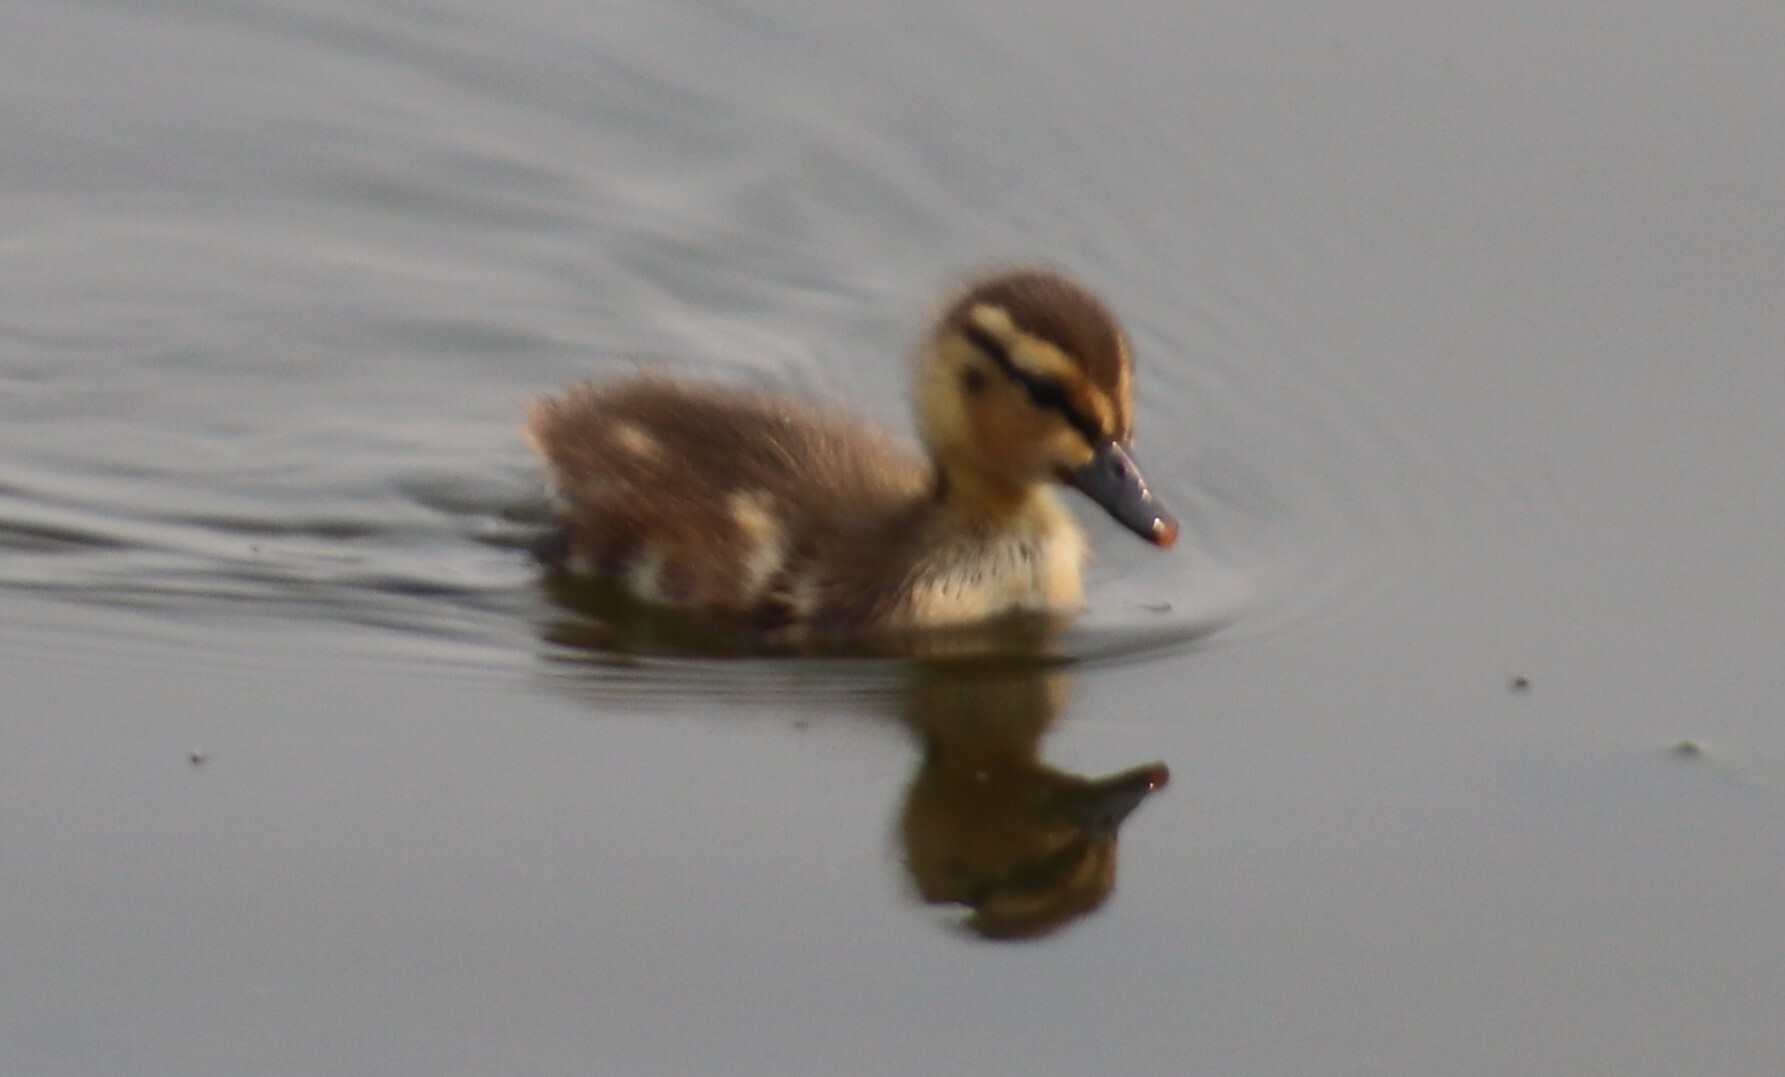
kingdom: Animalia
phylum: Chordata
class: Aves
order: Anseriformes
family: Anatidae
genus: Anas
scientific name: Anas platyrhynchos
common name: Mallard
